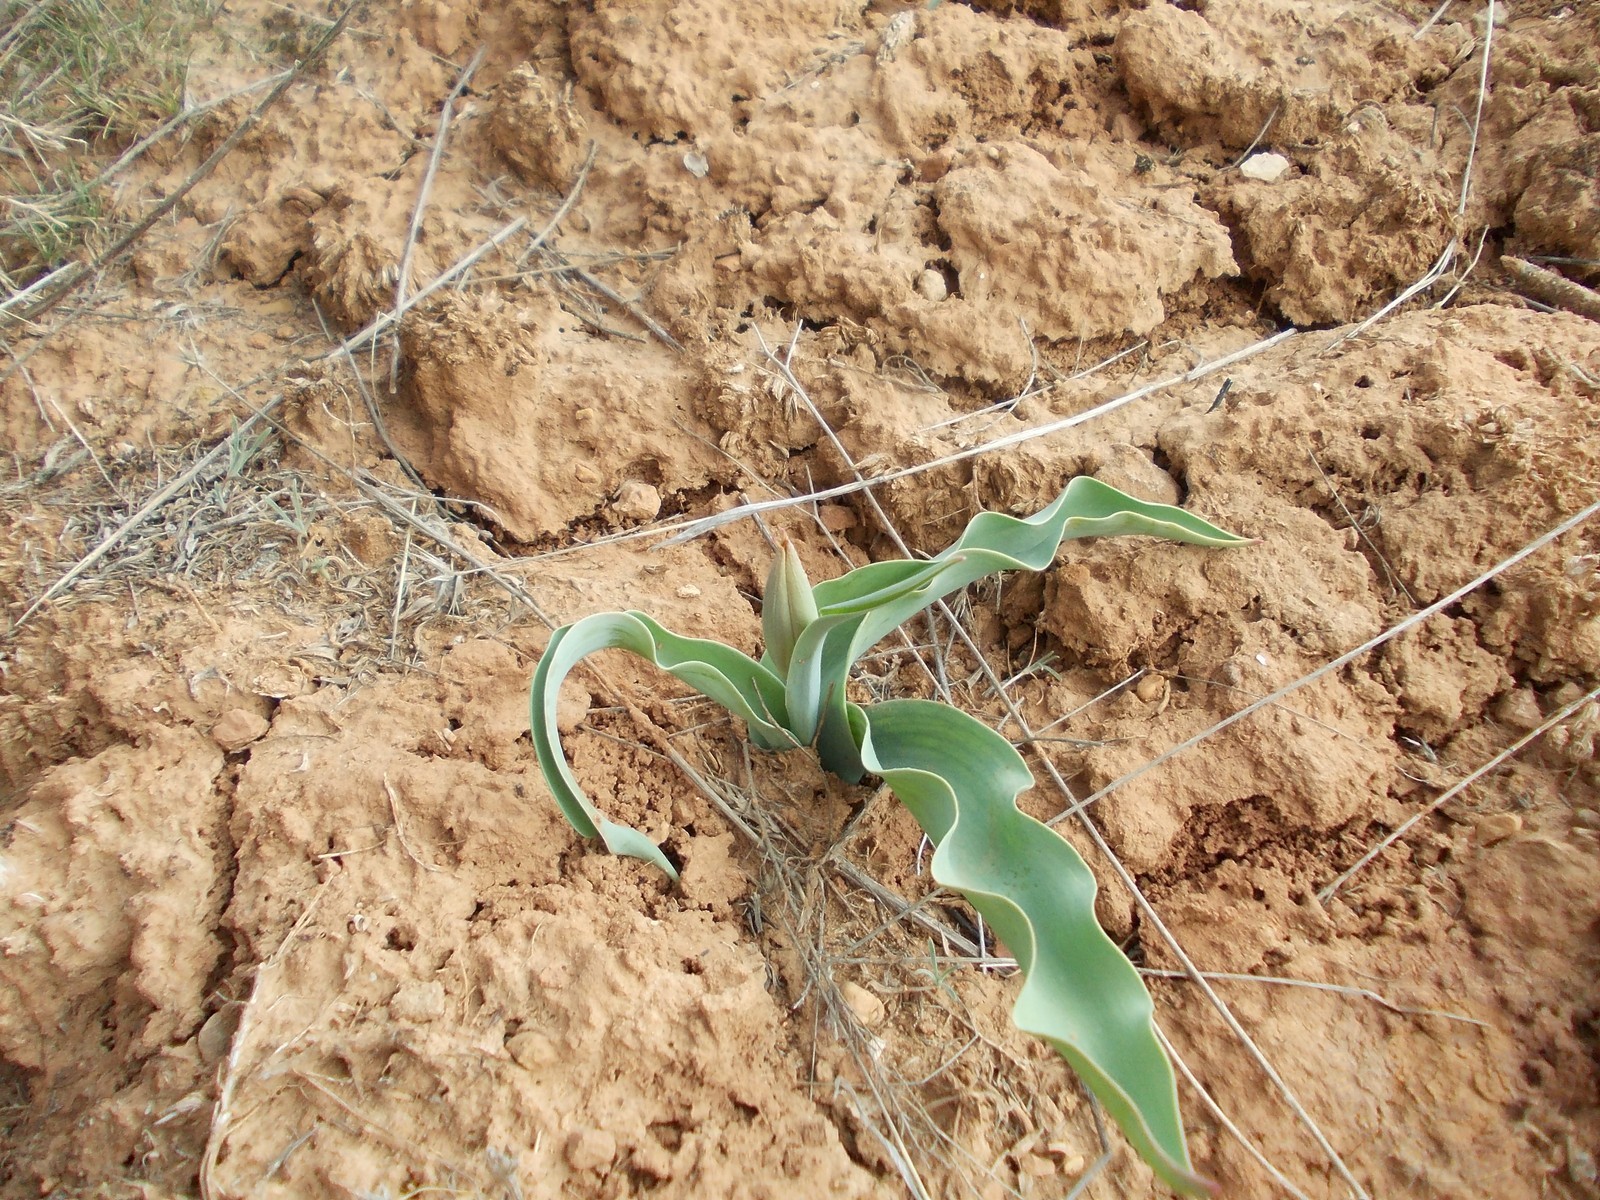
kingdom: Plantae
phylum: Tracheophyta
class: Liliopsida
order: Liliales
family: Liliaceae
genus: Tulipa
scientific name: Tulipa suaveolens
